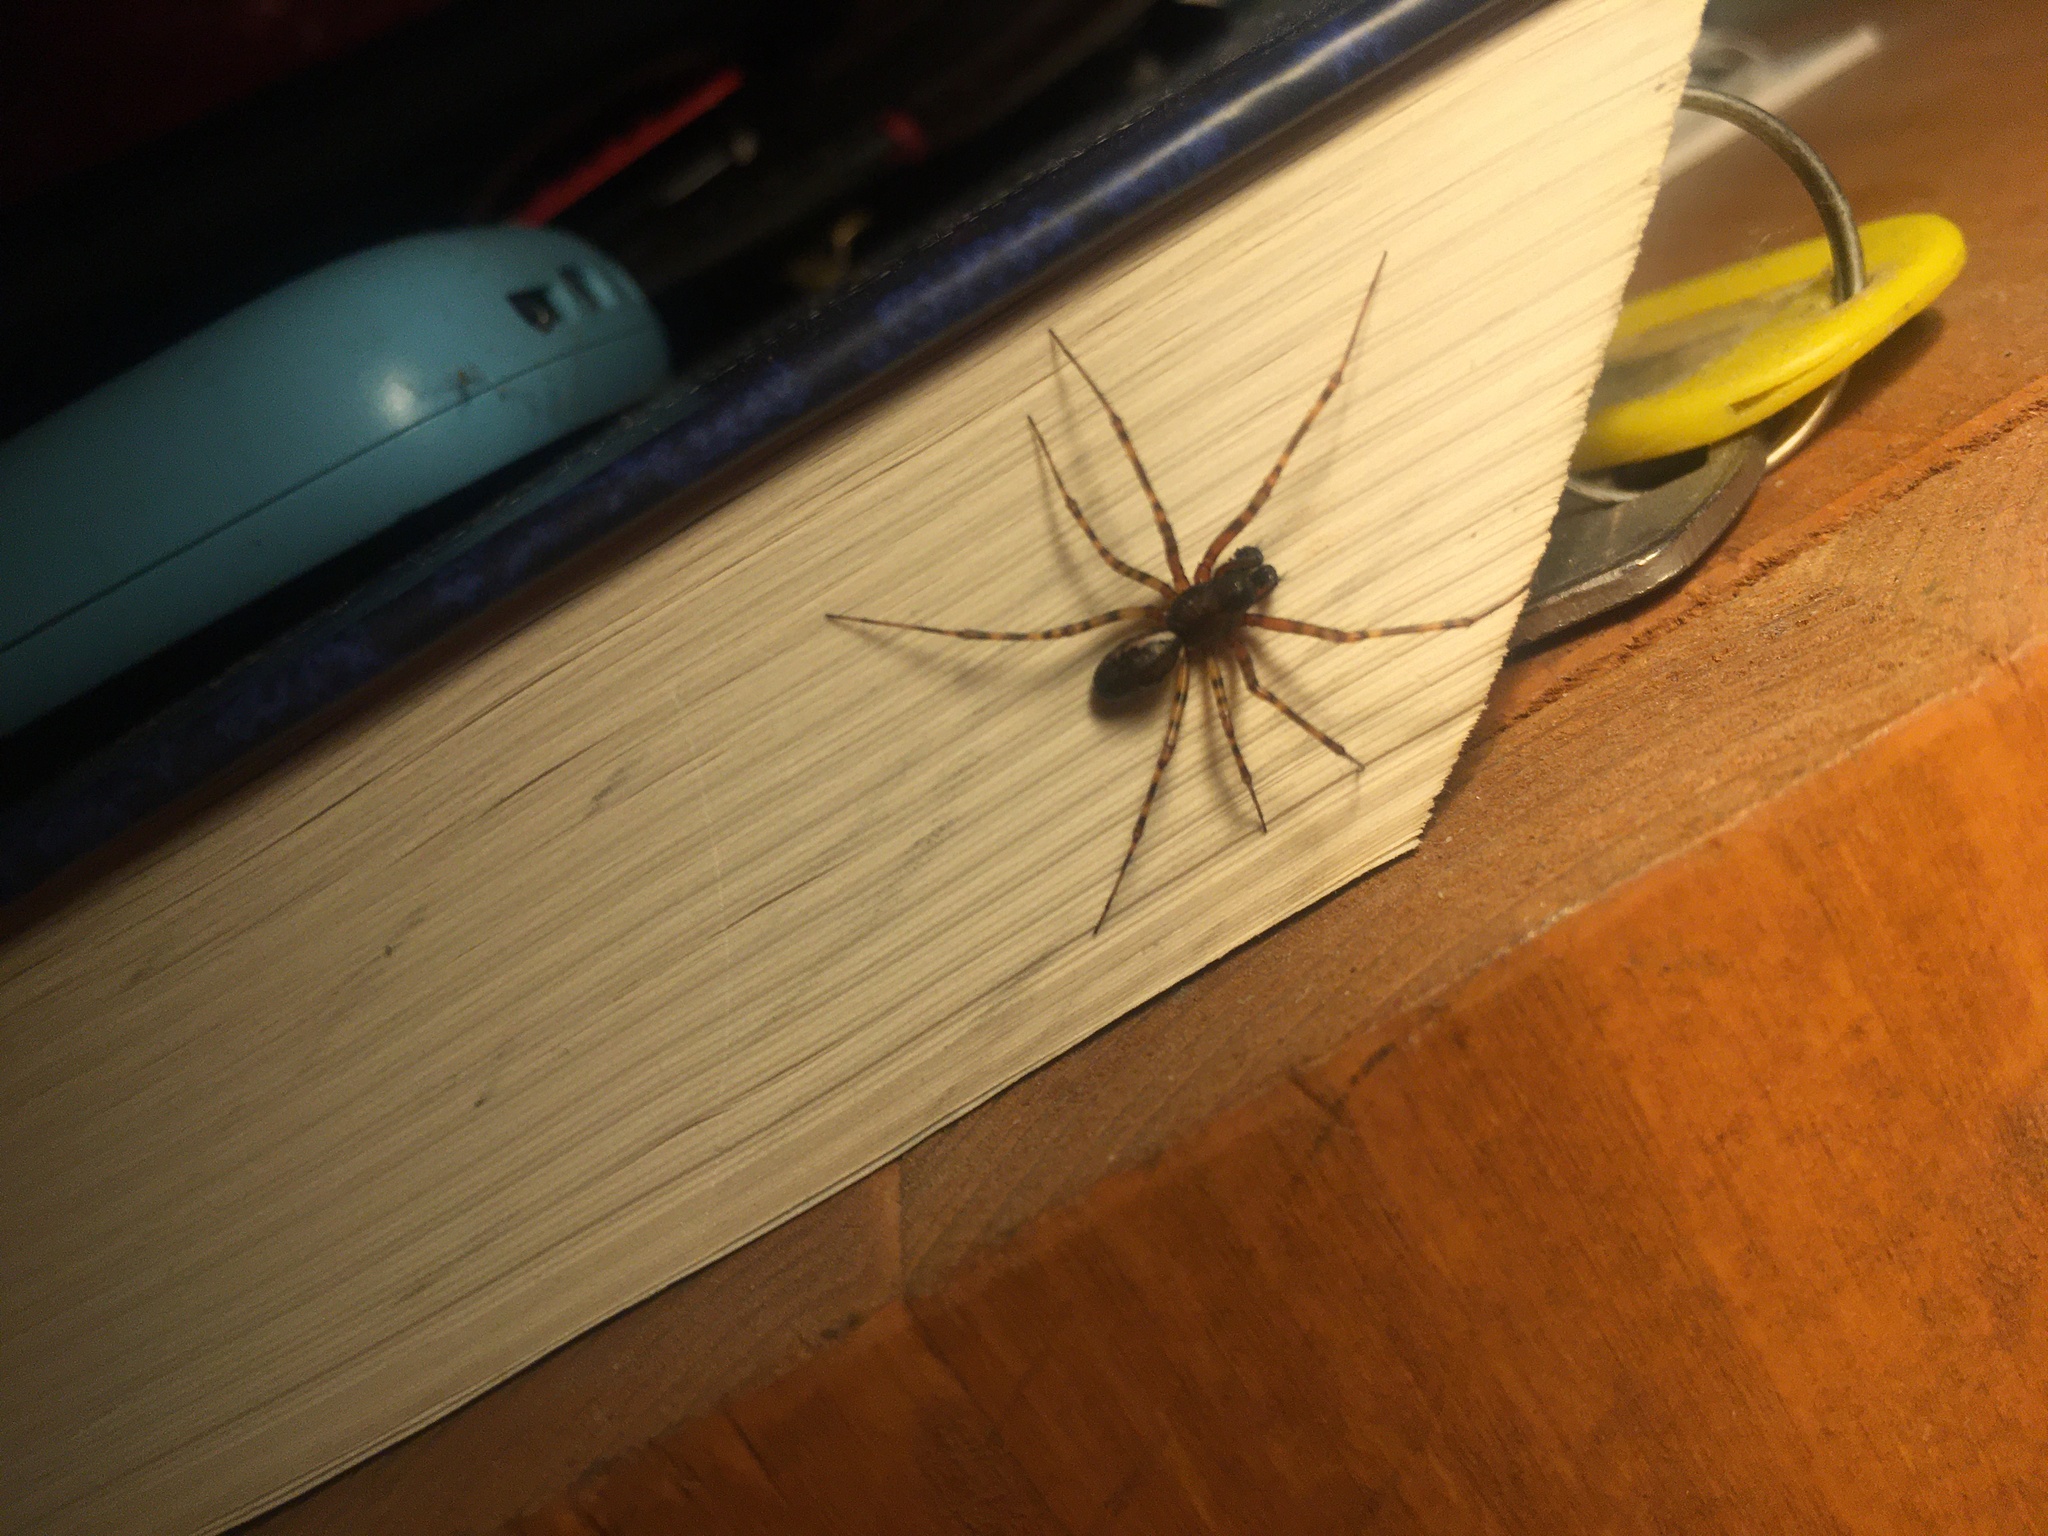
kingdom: Animalia
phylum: Arthropoda
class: Arachnida
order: Araneae
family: Linyphiidae
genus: Neriene
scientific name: Neriene montana
